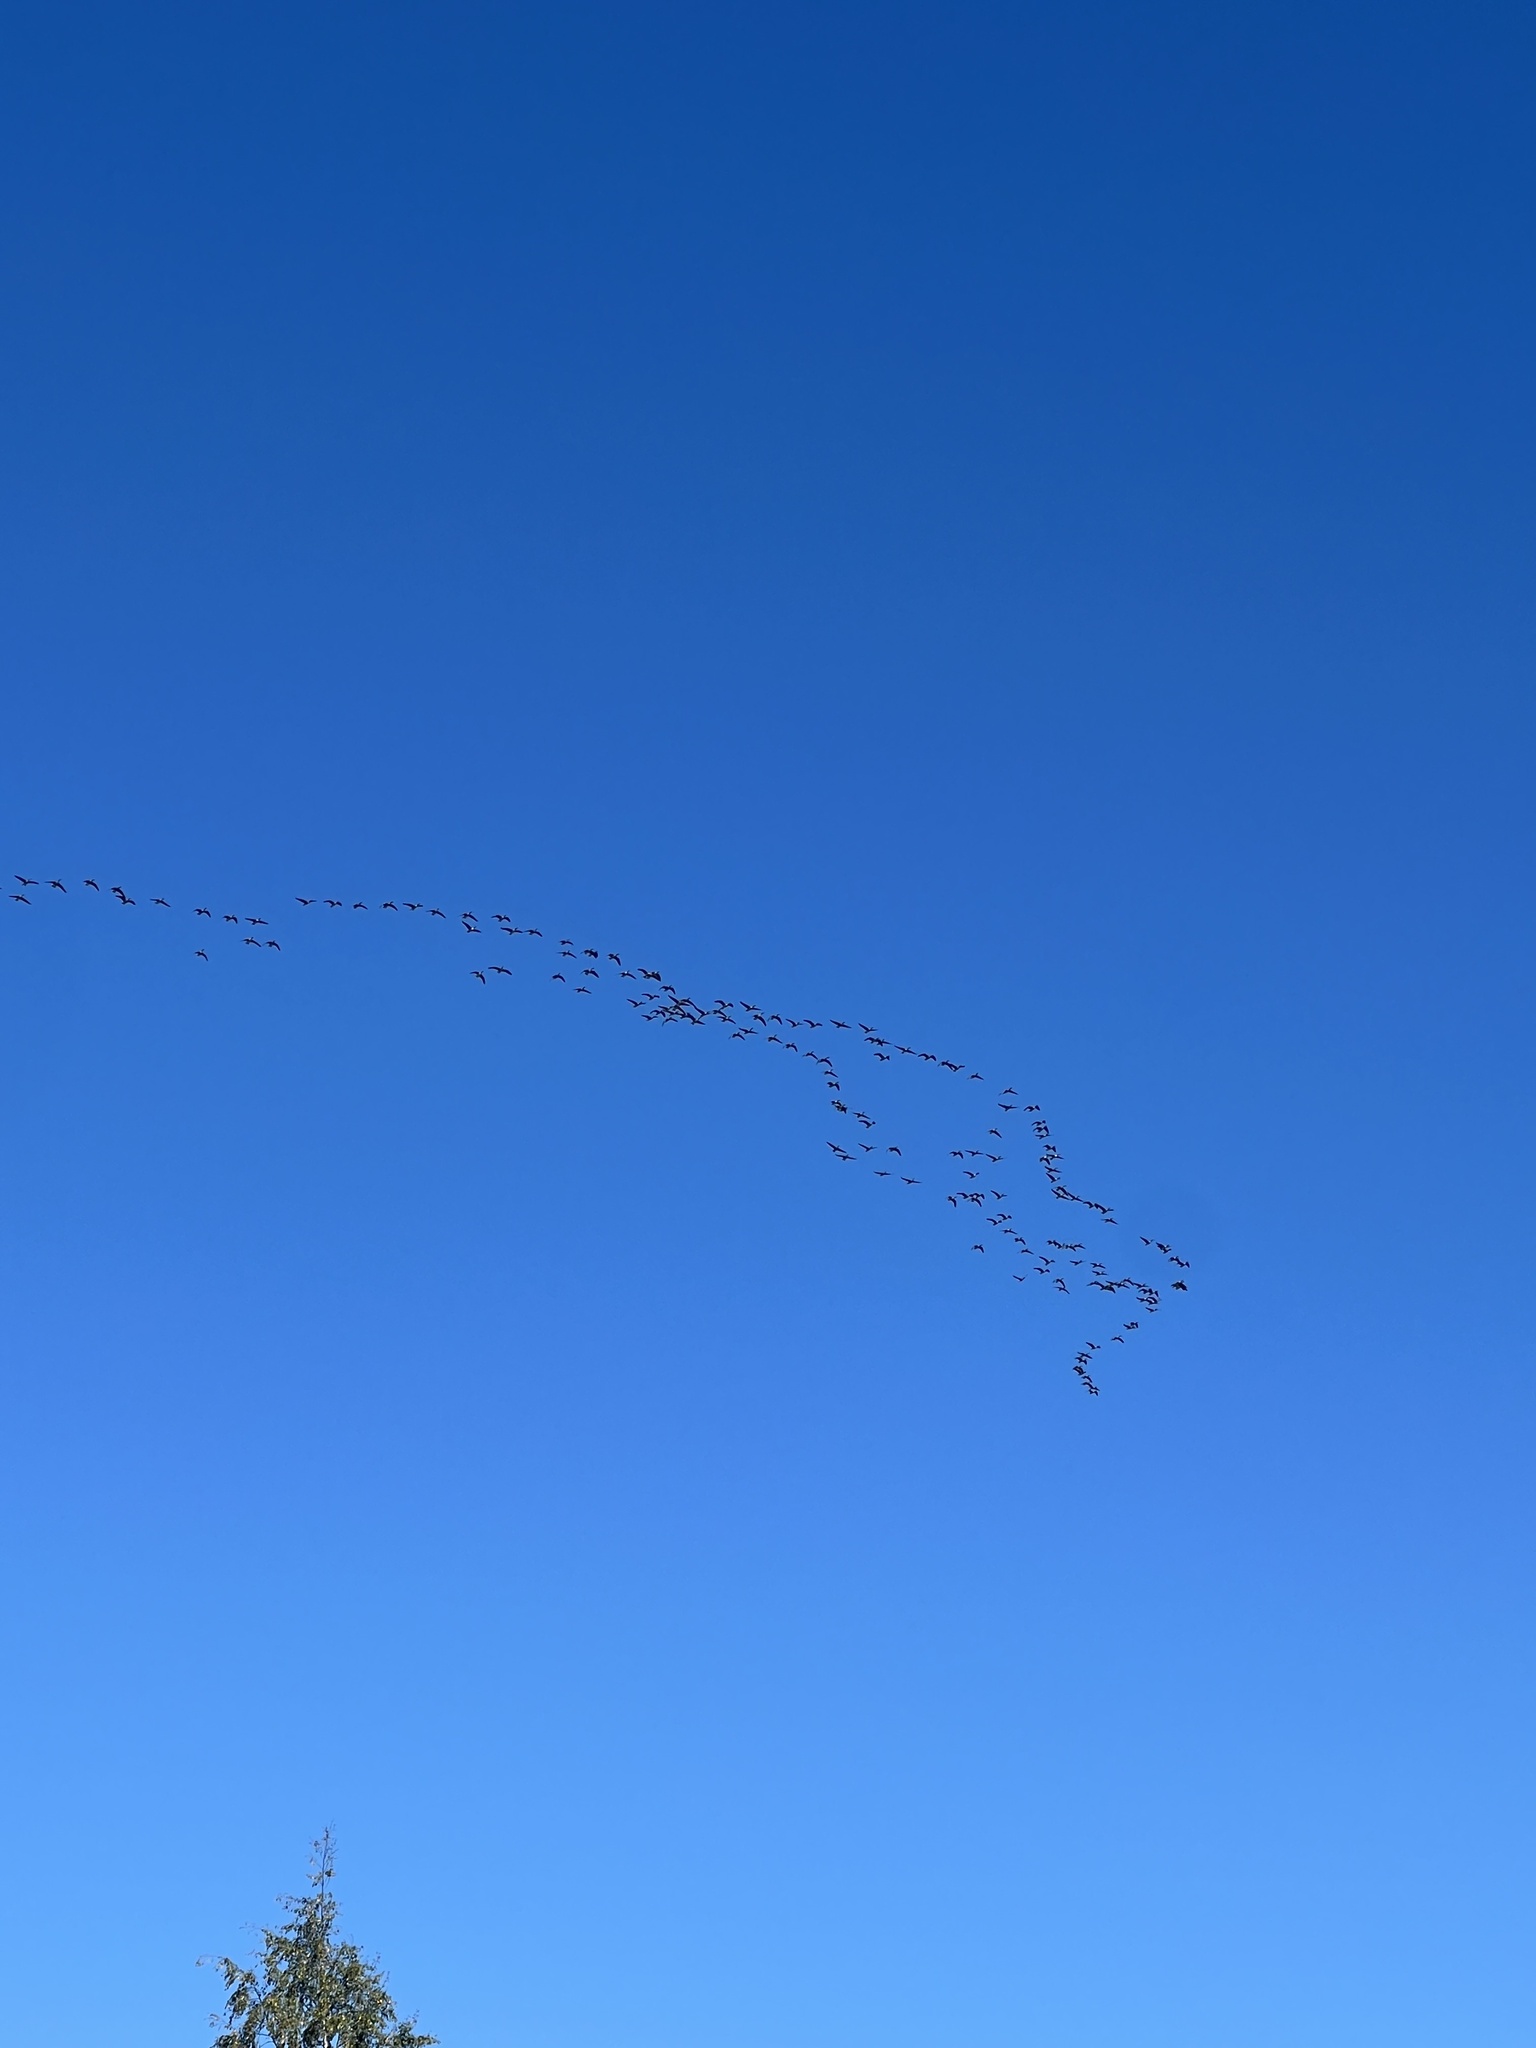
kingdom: Animalia
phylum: Chordata
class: Aves
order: Anseriformes
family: Anatidae
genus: Branta
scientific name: Branta canadensis
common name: Canada goose
